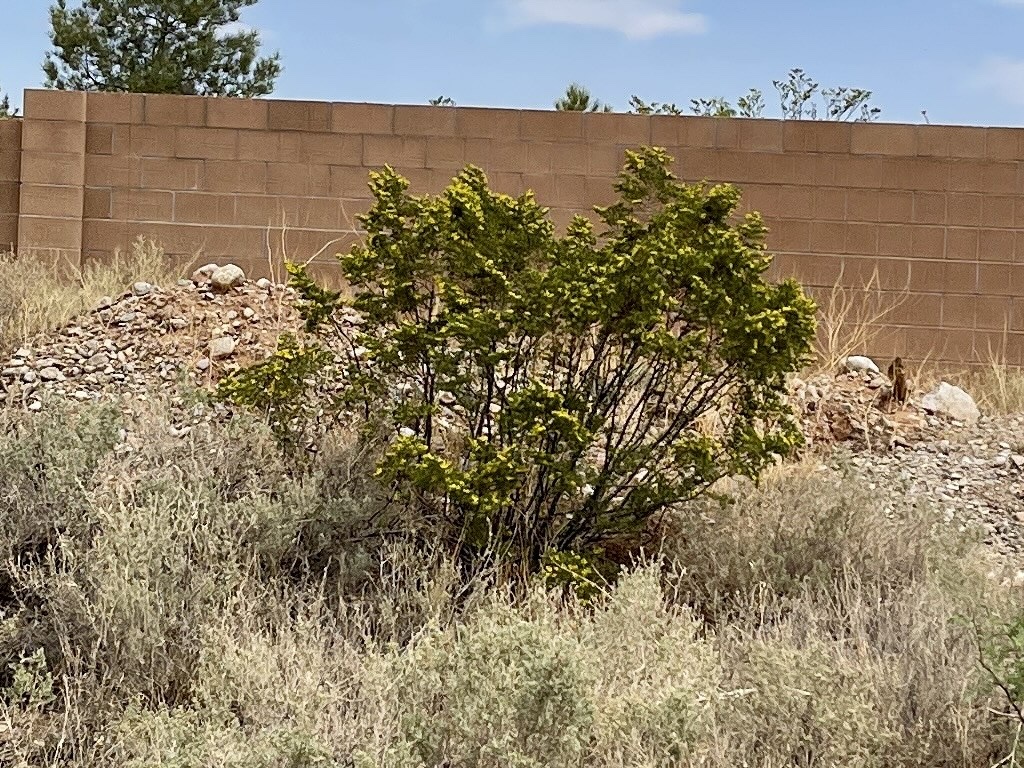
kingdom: Plantae
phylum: Tracheophyta
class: Magnoliopsida
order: Zygophyllales
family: Zygophyllaceae
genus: Larrea
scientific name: Larrea tridentata
